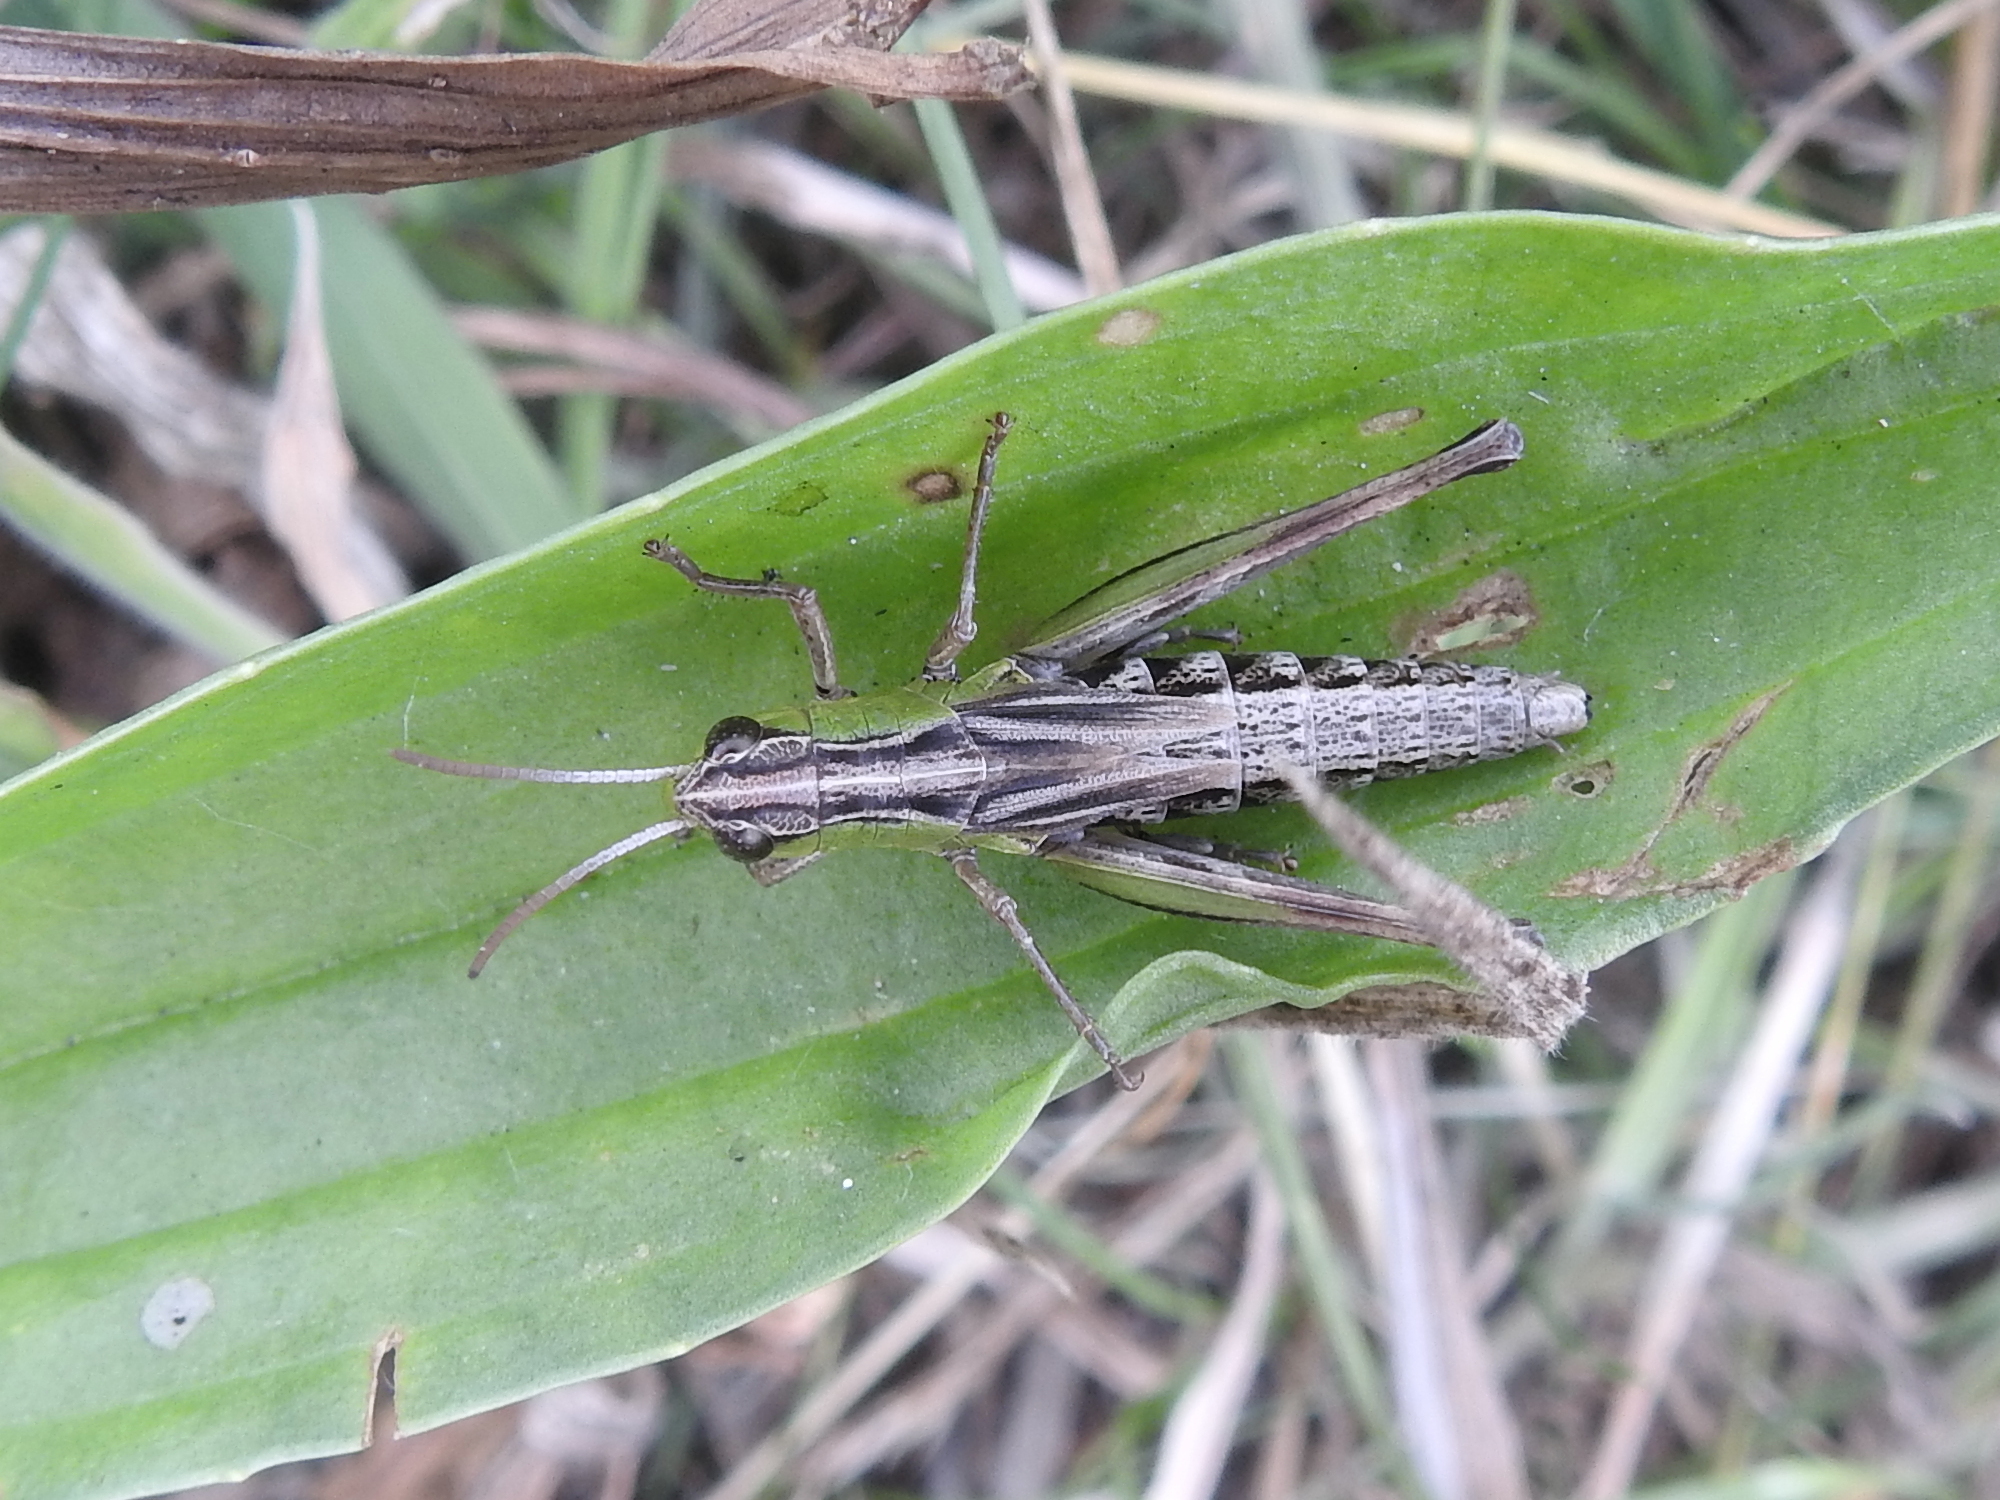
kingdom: Animalia
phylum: Arthropoda
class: Insecta
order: Orthoptera
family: Acrididae
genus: Pseudochorthippus
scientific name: Pseudochorthippus parallelus
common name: Meadow grasshopper
